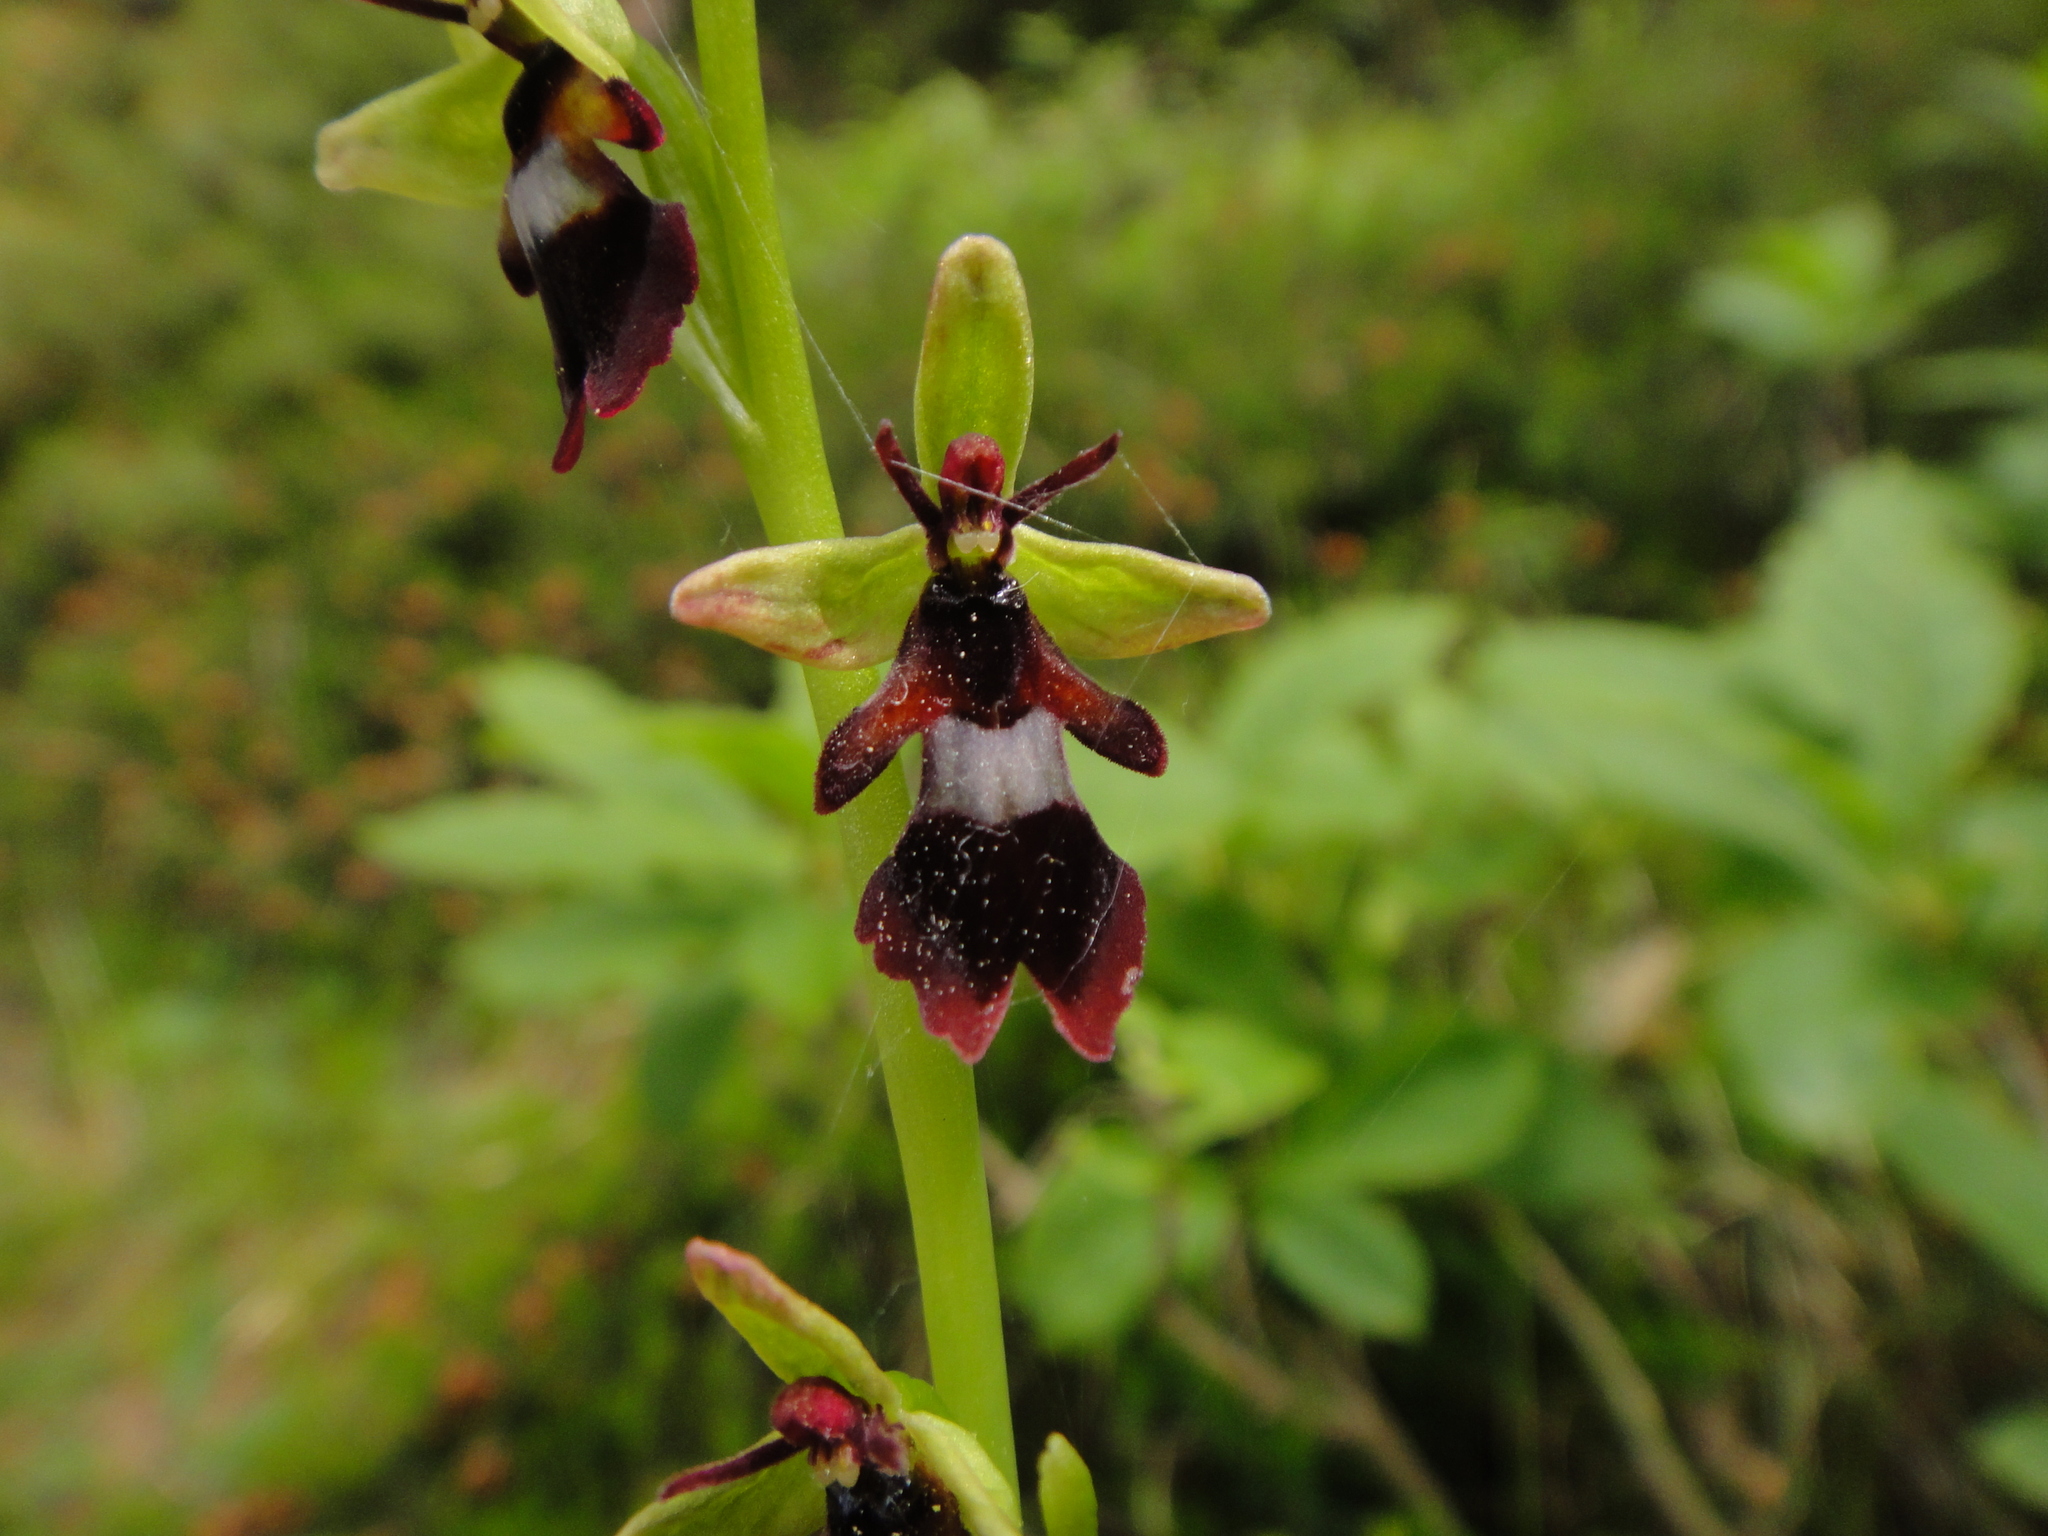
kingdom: Plantae
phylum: Tracheophyta
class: Liliopsida
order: Asparagales
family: Orchidaceae
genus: Ophrys
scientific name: Ophrys insectifera
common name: Fly orchid
